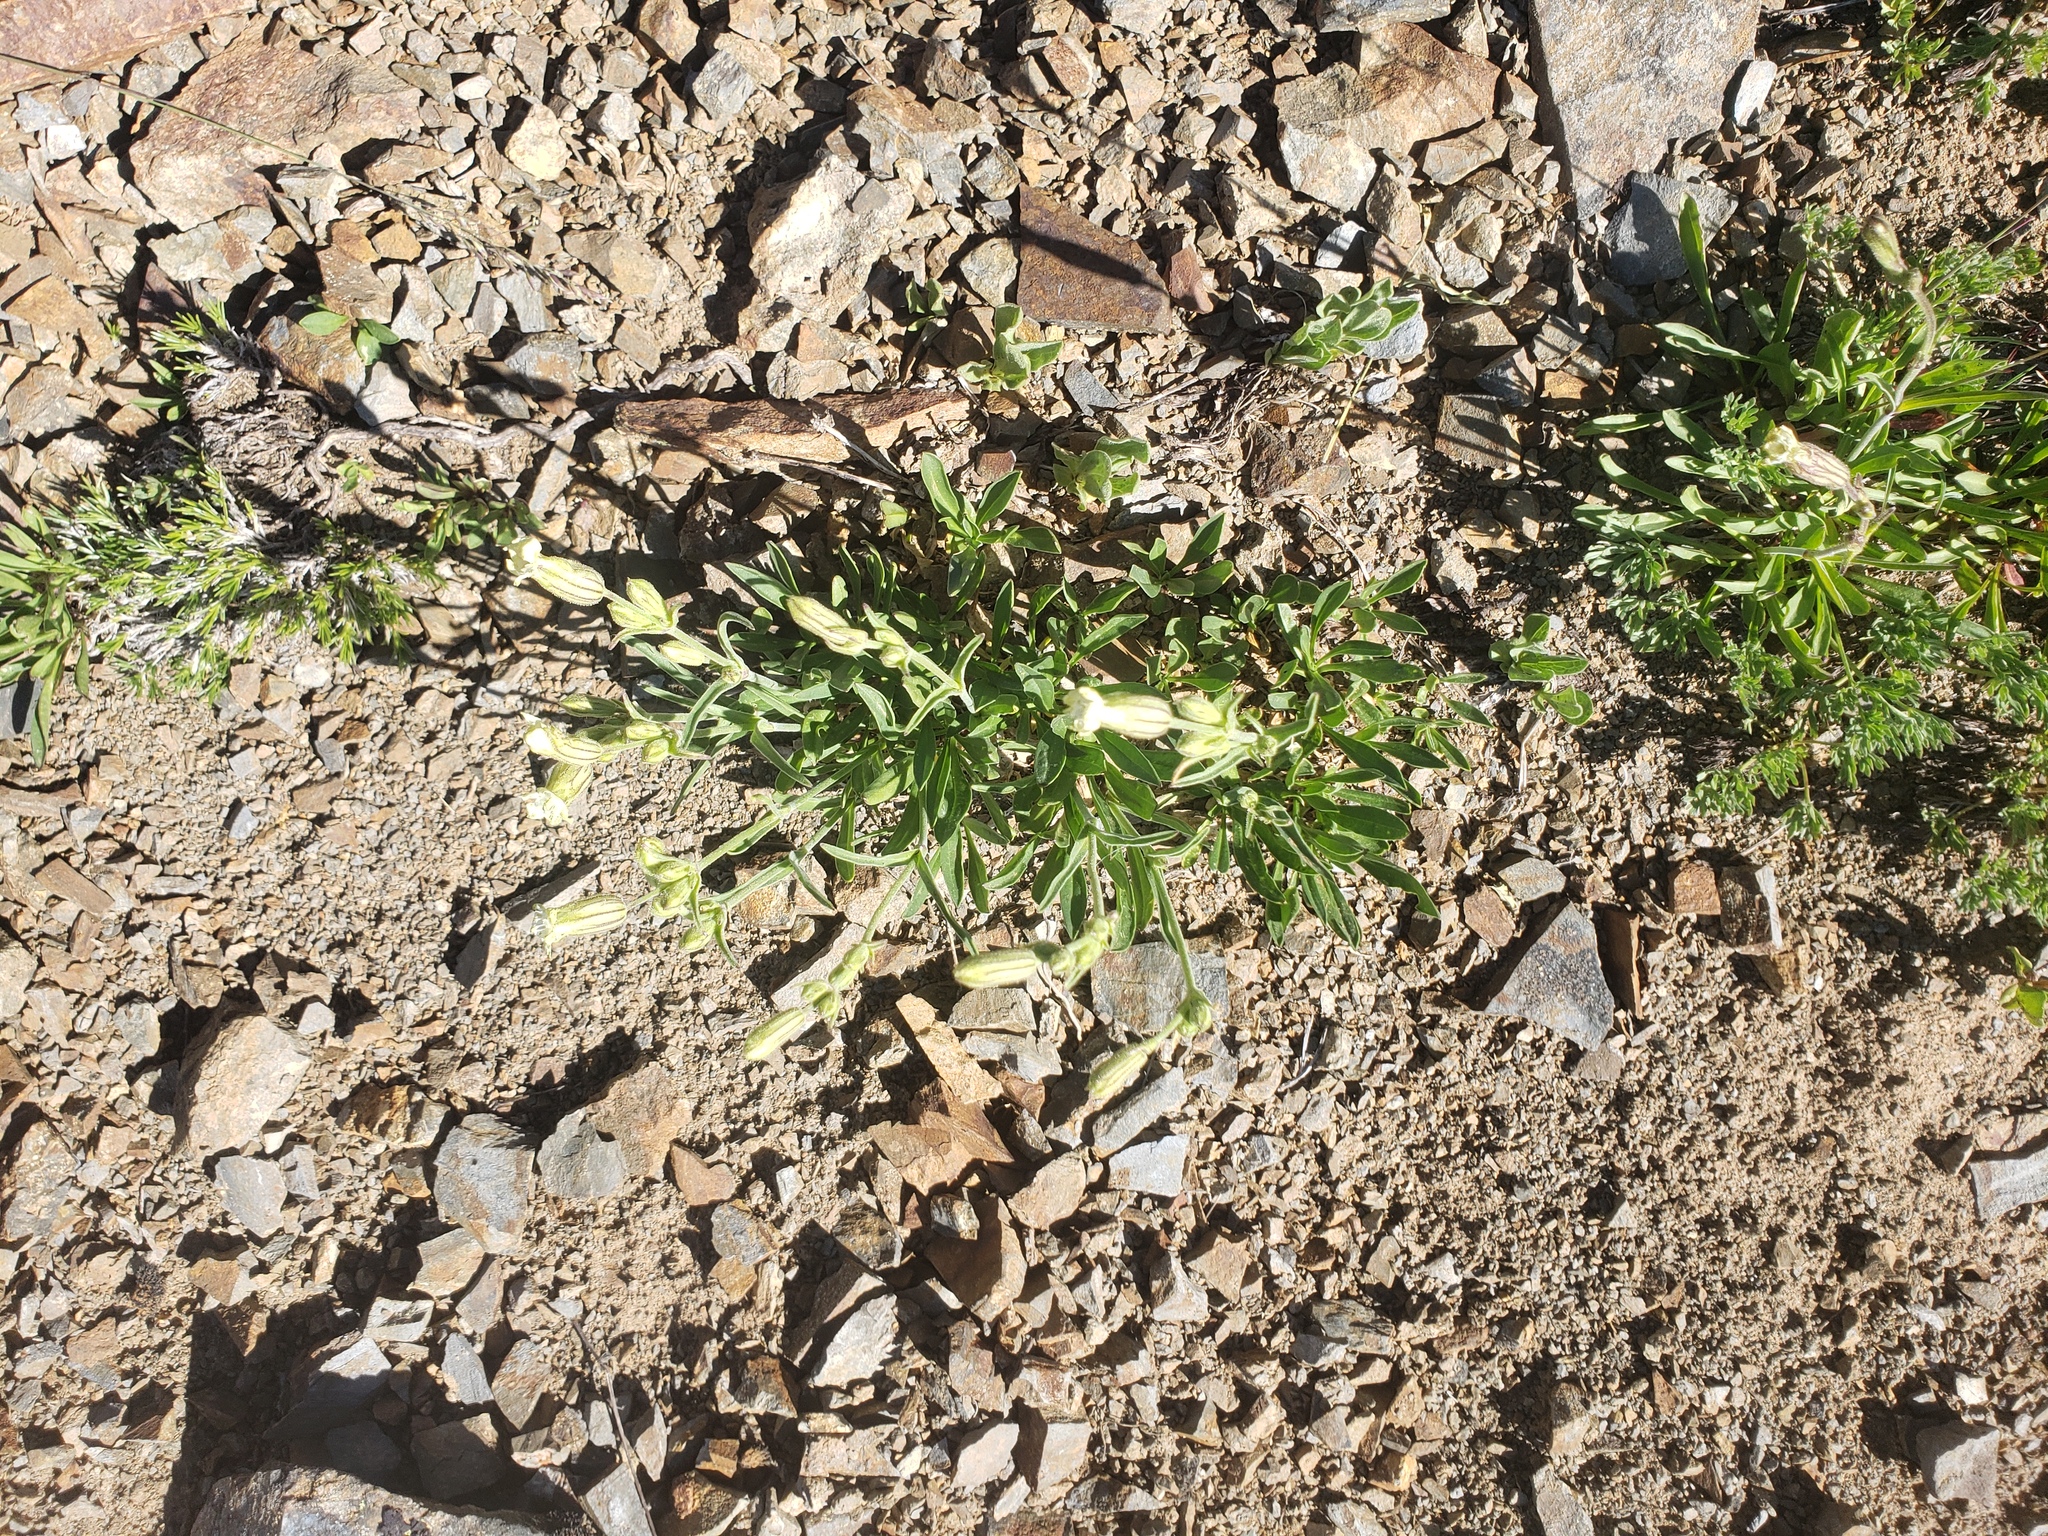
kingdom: Plantae
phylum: Tracheophyta
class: Magnoliopsida
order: Caryophyllales
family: Caryophyllaceae
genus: Silene
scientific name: Silene parryi
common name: Parry's campion
